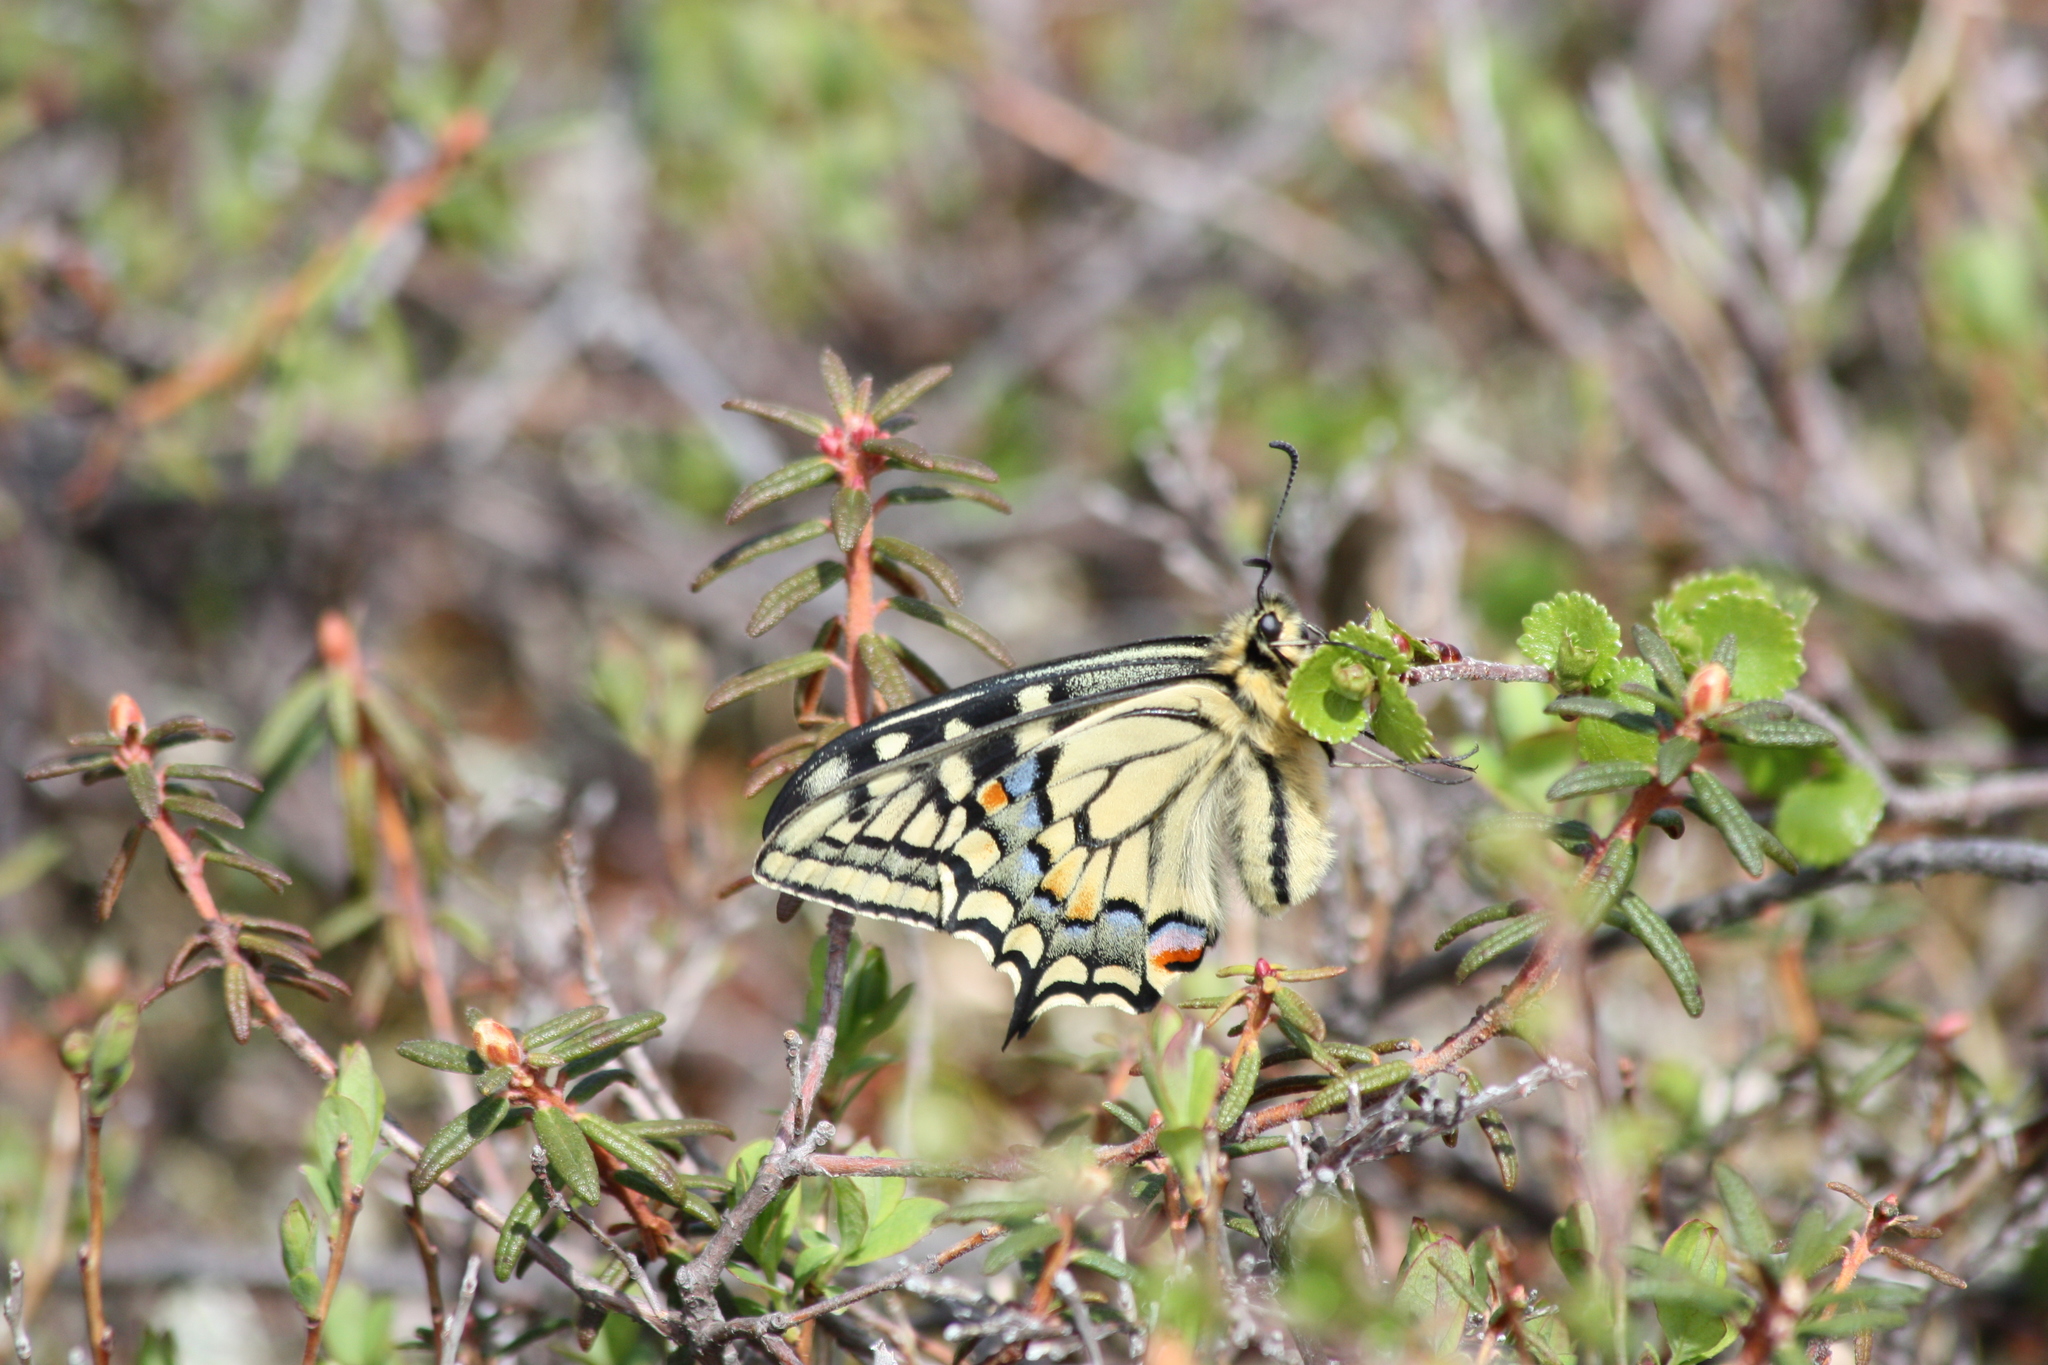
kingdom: Animalia
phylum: Arthropoda
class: Insecta
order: Lepidoptera
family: Papilionidae
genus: Papilio
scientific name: Papilio machaon
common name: Swallowtail
